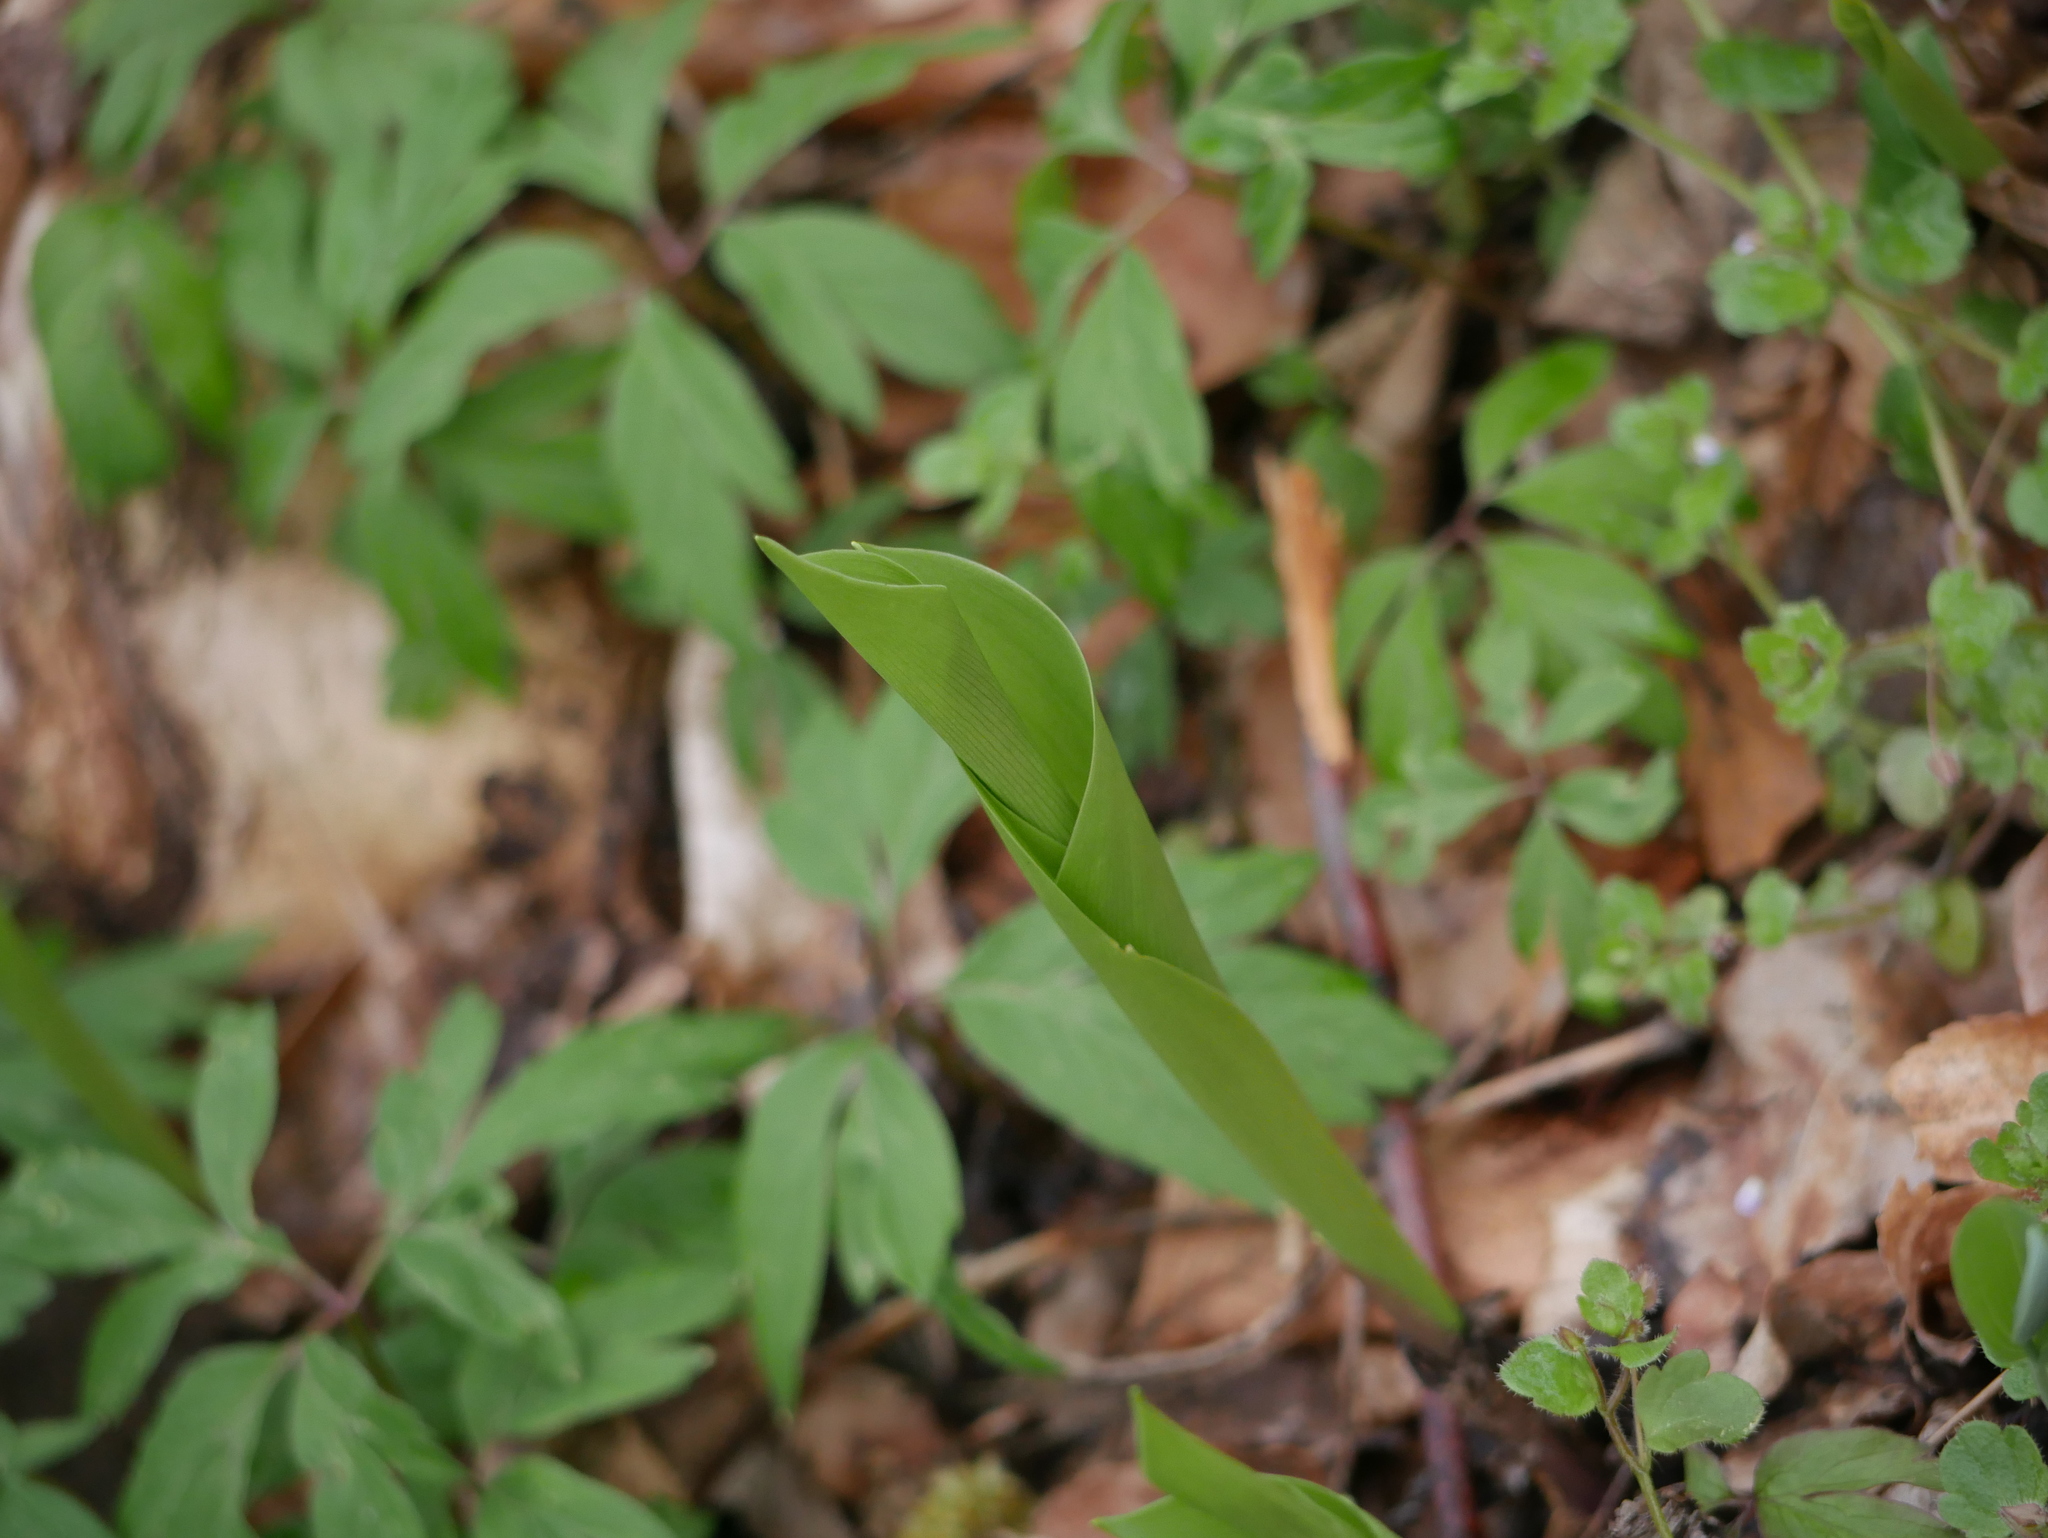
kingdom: Plantae
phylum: Tracheophyta
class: Liliopsida
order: Asparagales
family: Asparagaceae
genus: Convallaria
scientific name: Convallaria majalis
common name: Lily-of-the-valley
